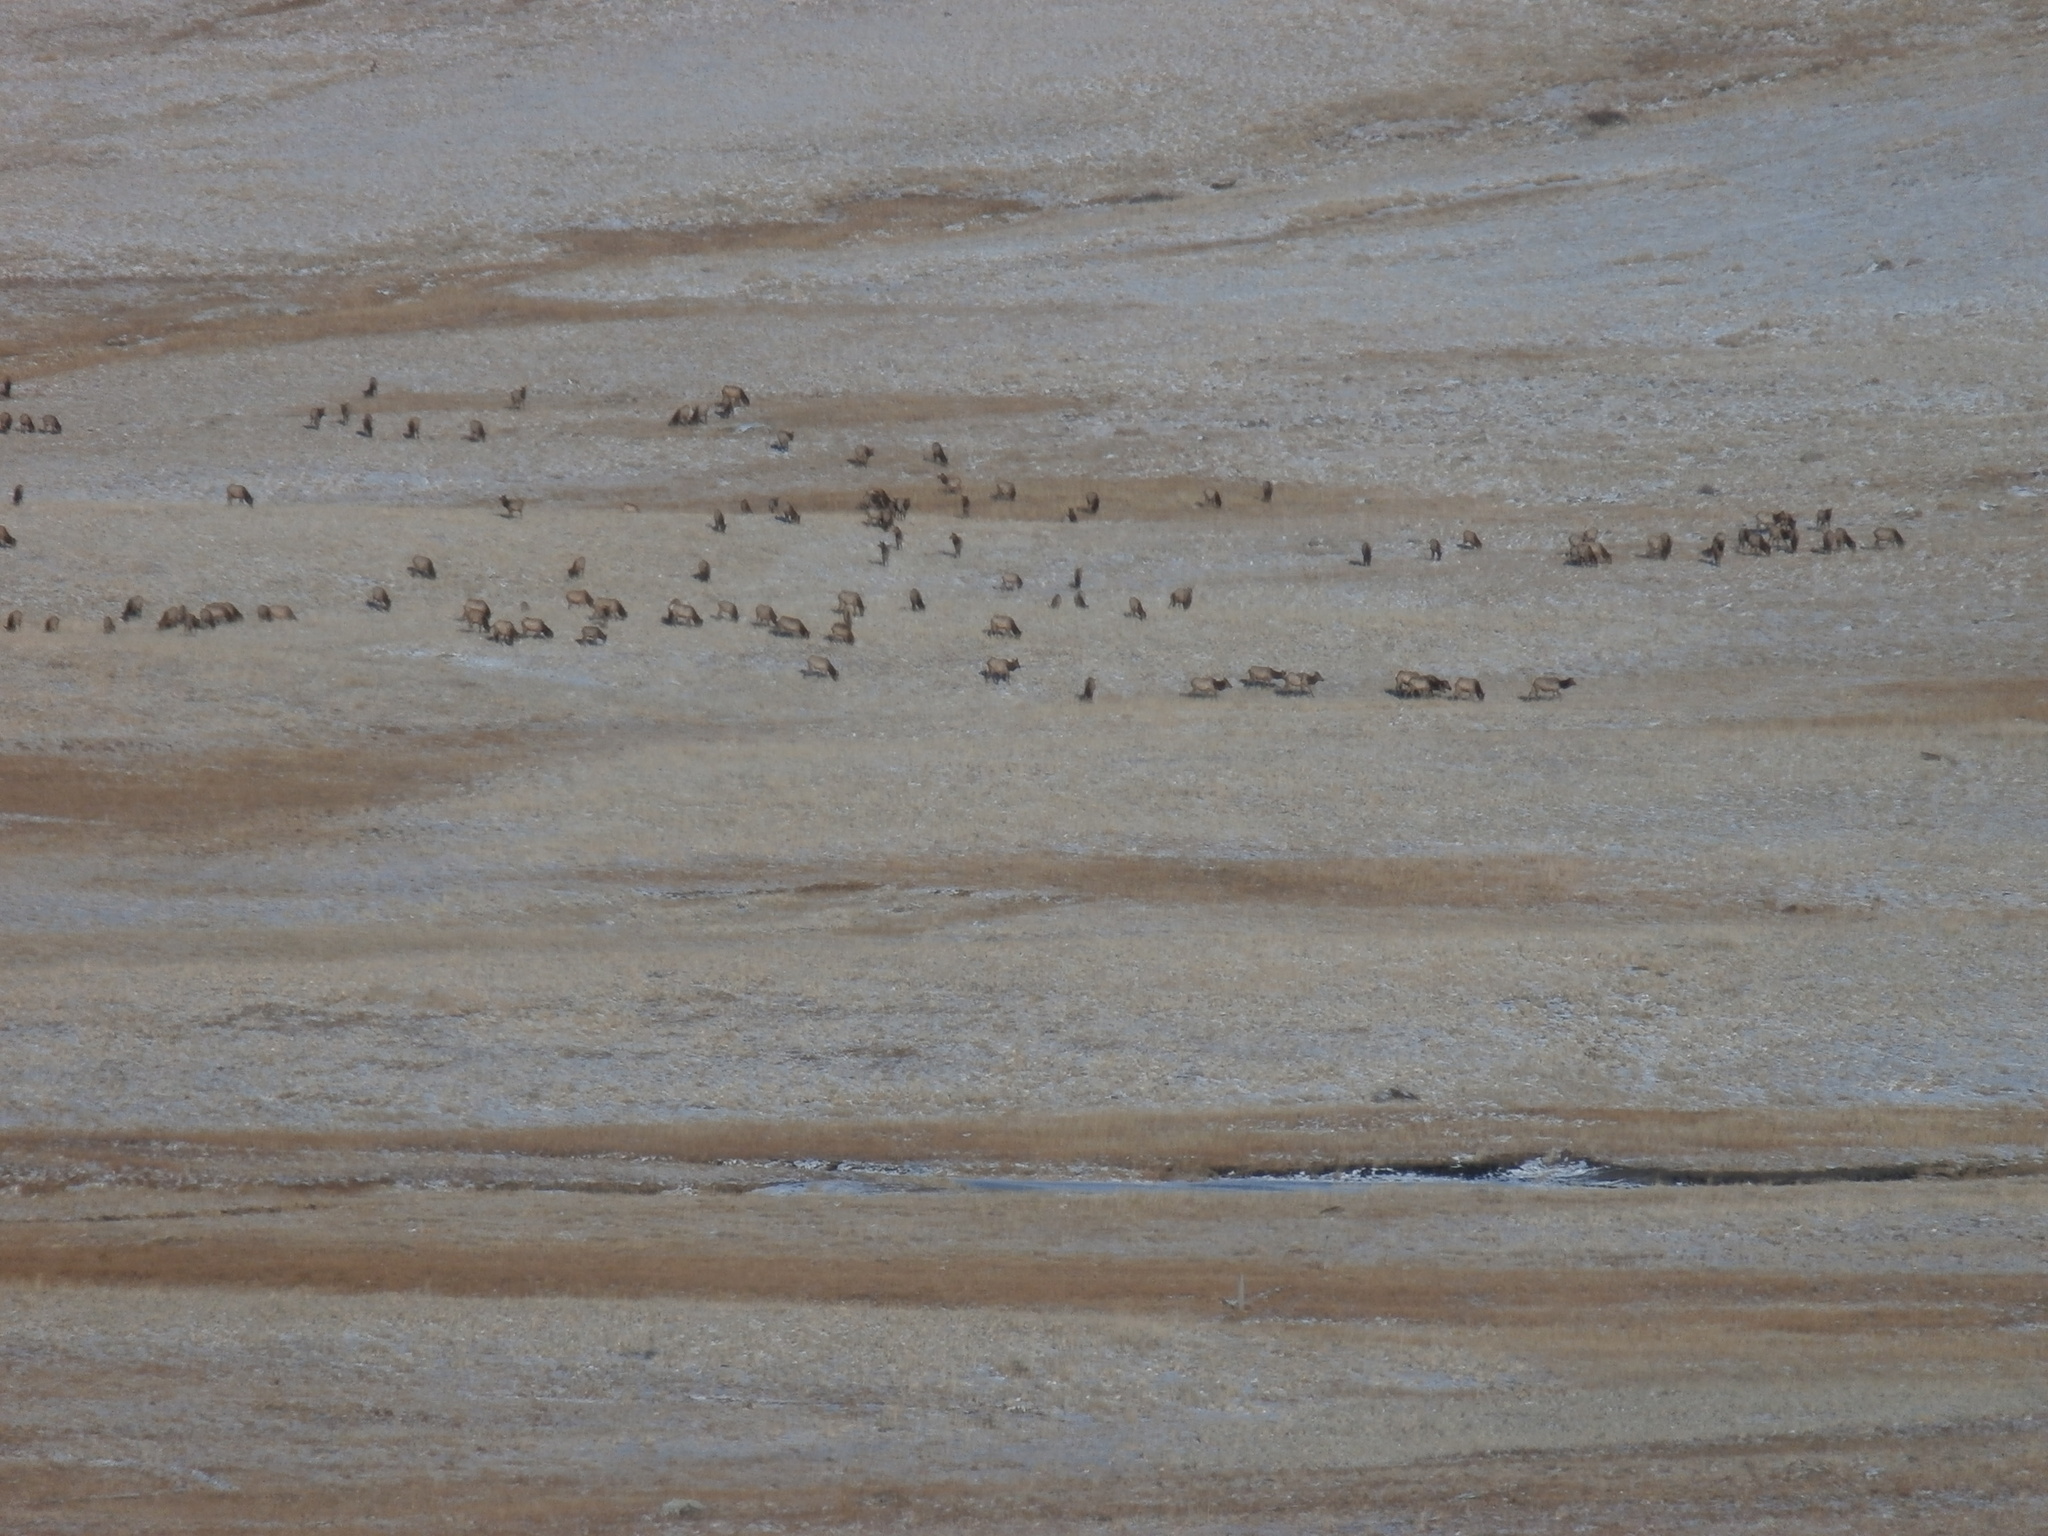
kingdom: Animalia
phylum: Chordata
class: Mammalia
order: Artiodactyla
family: Cervidae
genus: Cervus
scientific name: Cervus elaphus
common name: Red deer
